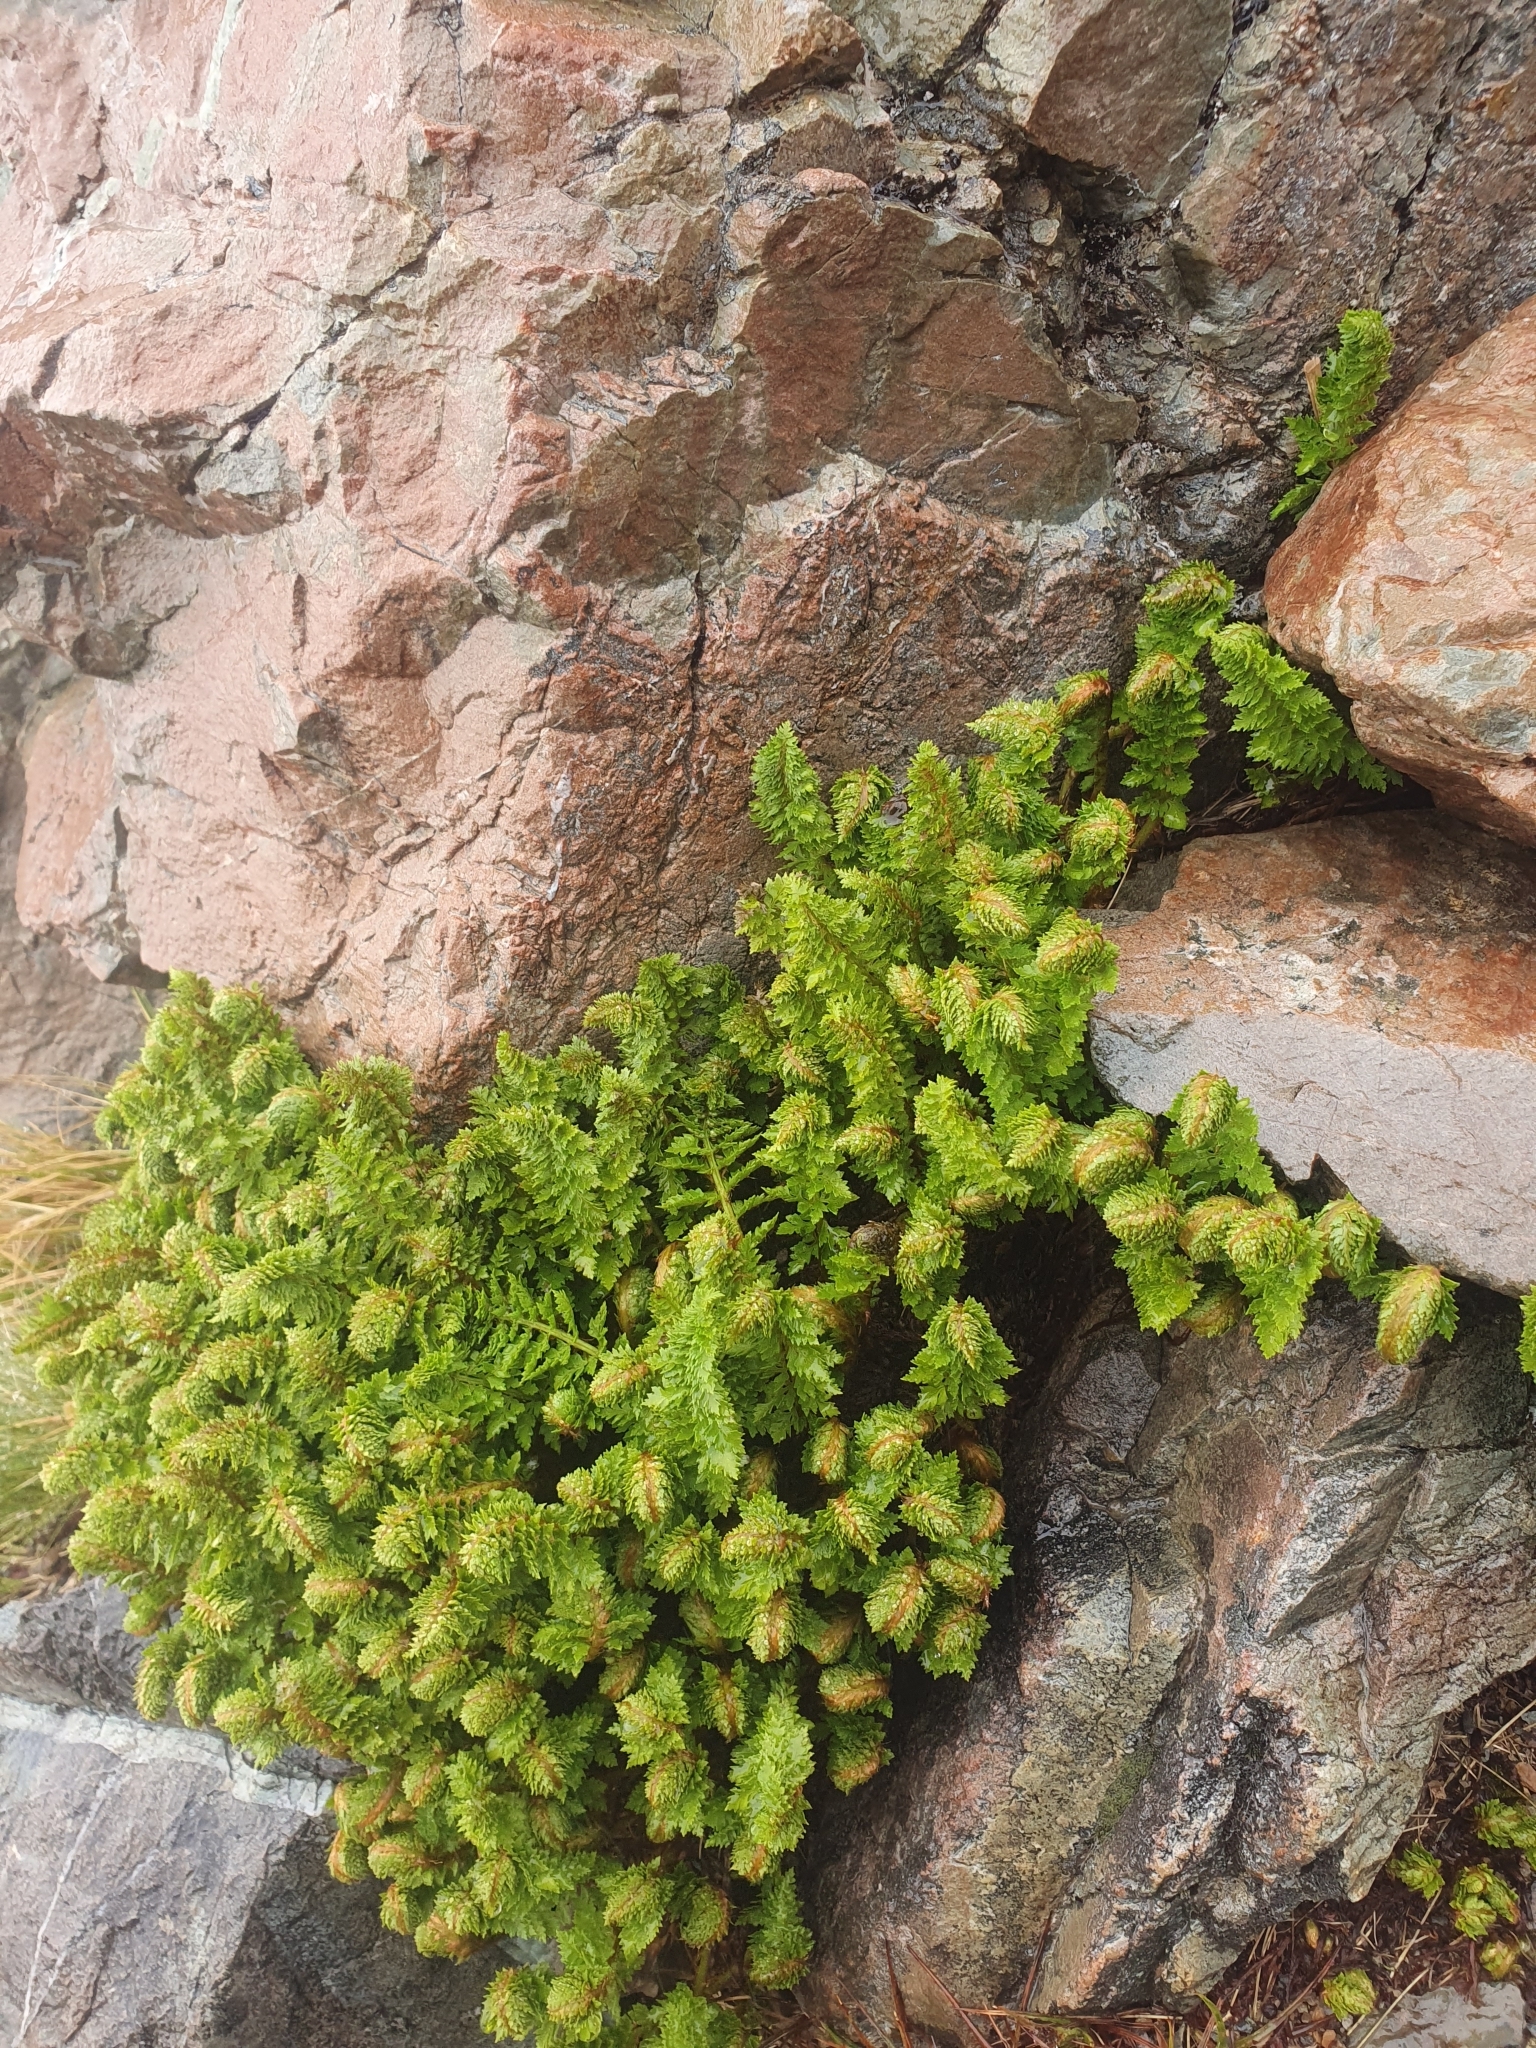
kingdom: Plantae
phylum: Tracheophyta
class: Polypodiopsida
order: Polypodiales
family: Dryopteridaceae
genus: Polystichum
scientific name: Polystichum cystostegia
